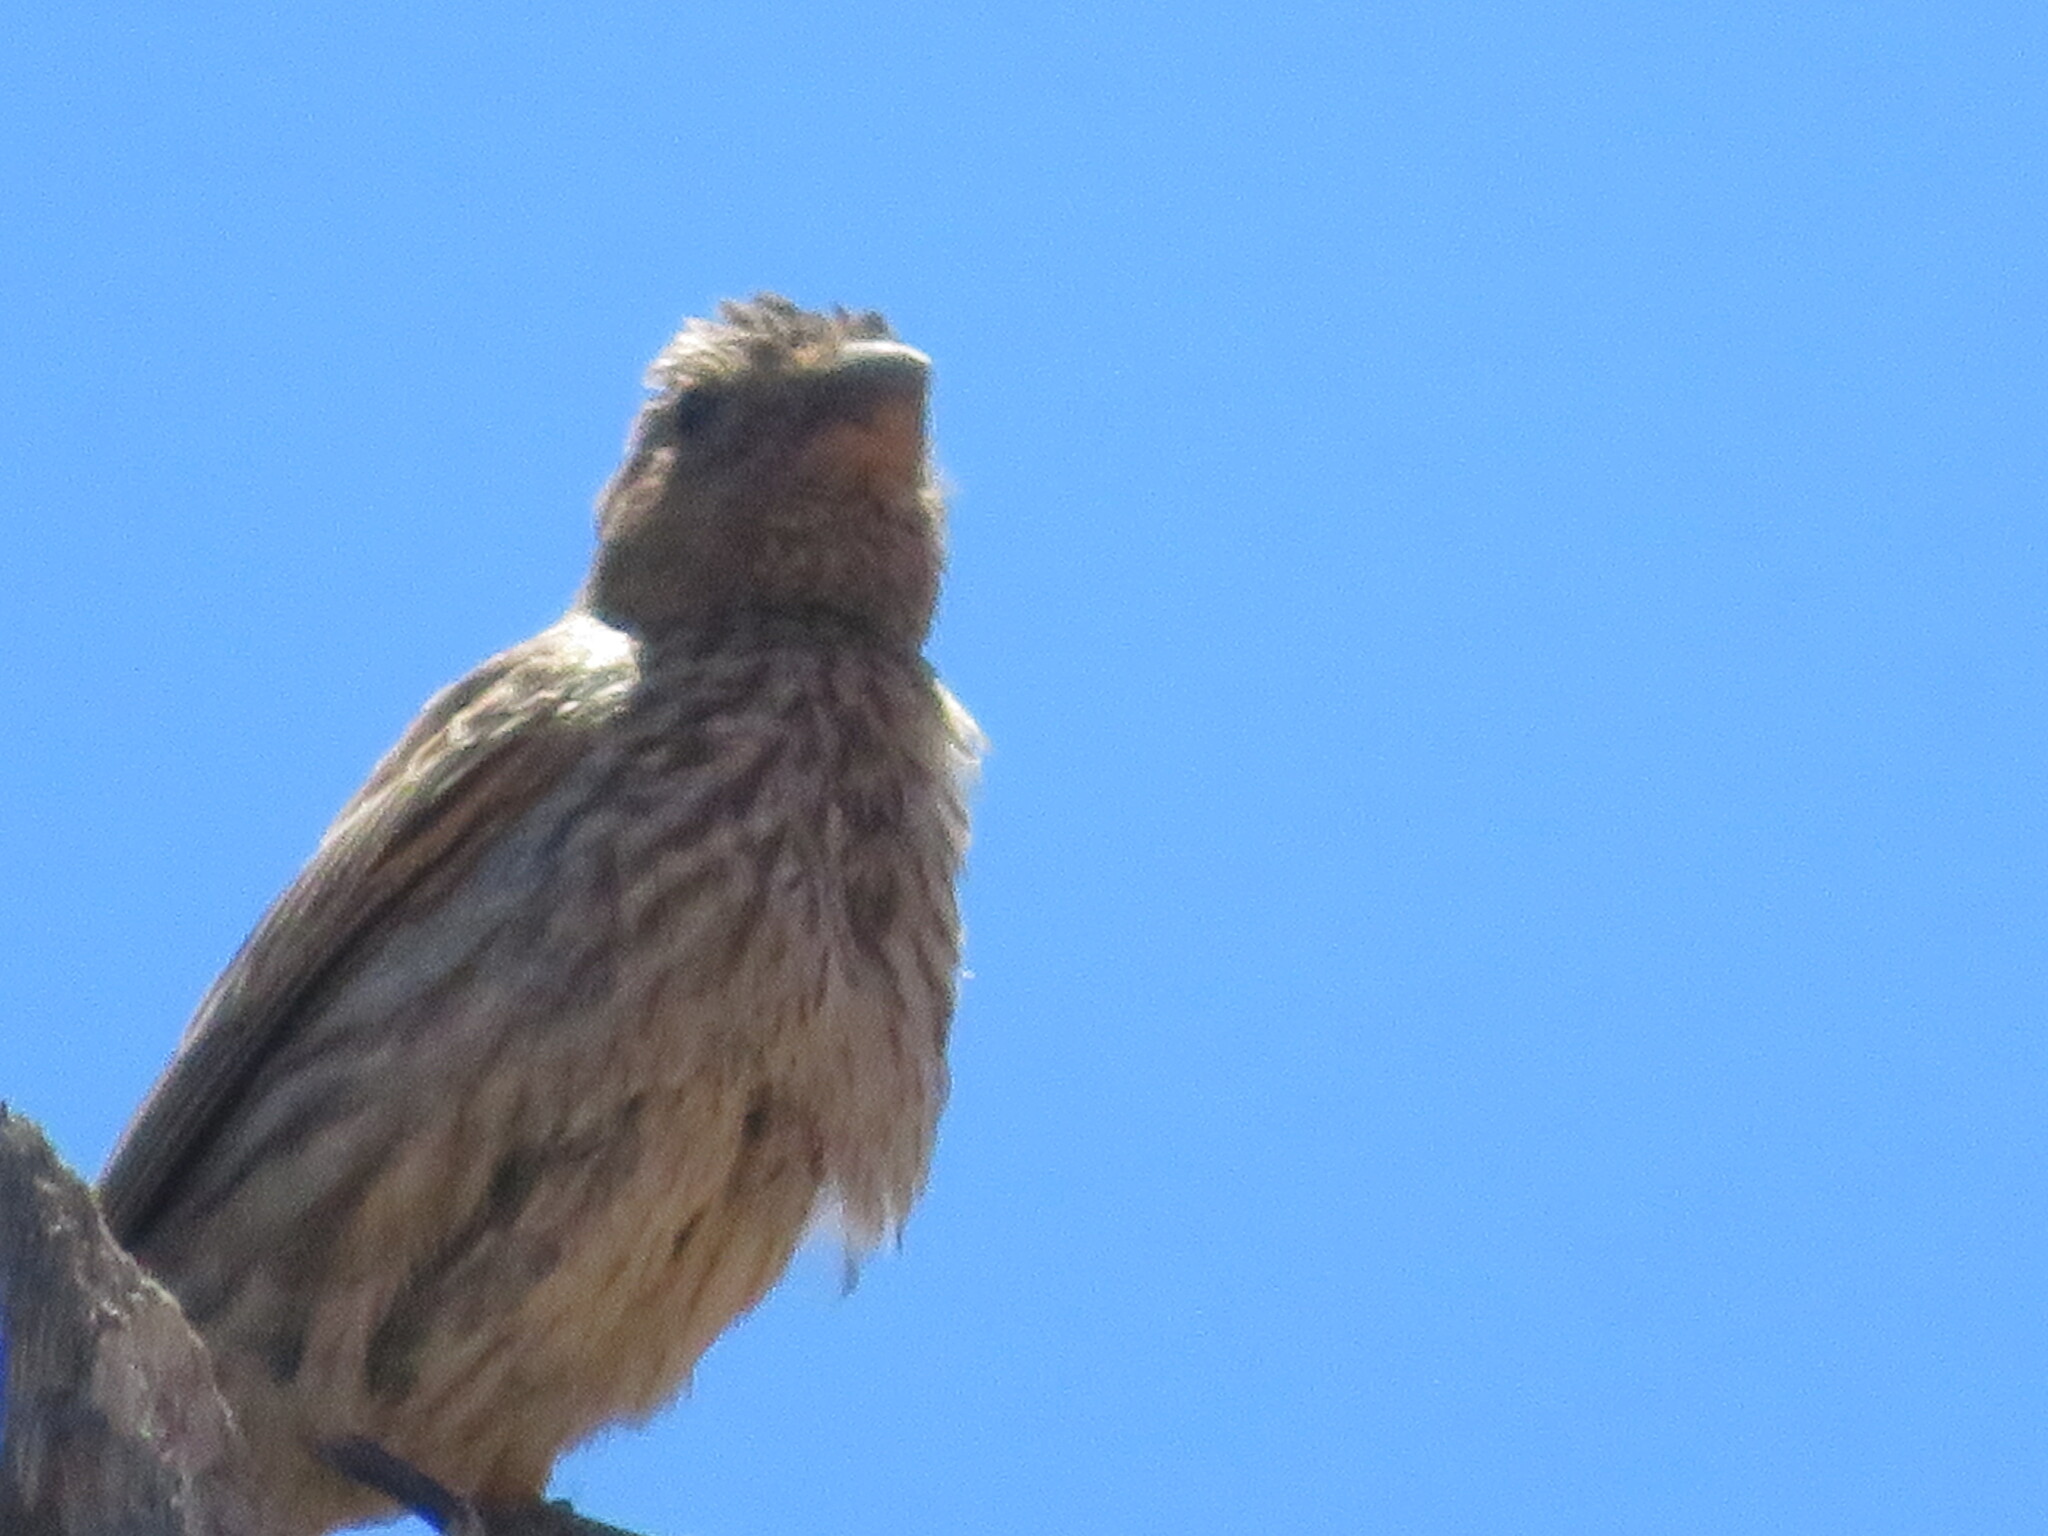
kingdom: Animalia
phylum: Chordata
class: Aves
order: Passeriformes
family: Fringillidae
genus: Haemorhous
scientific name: Haemorhous mexicanus
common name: House finch
